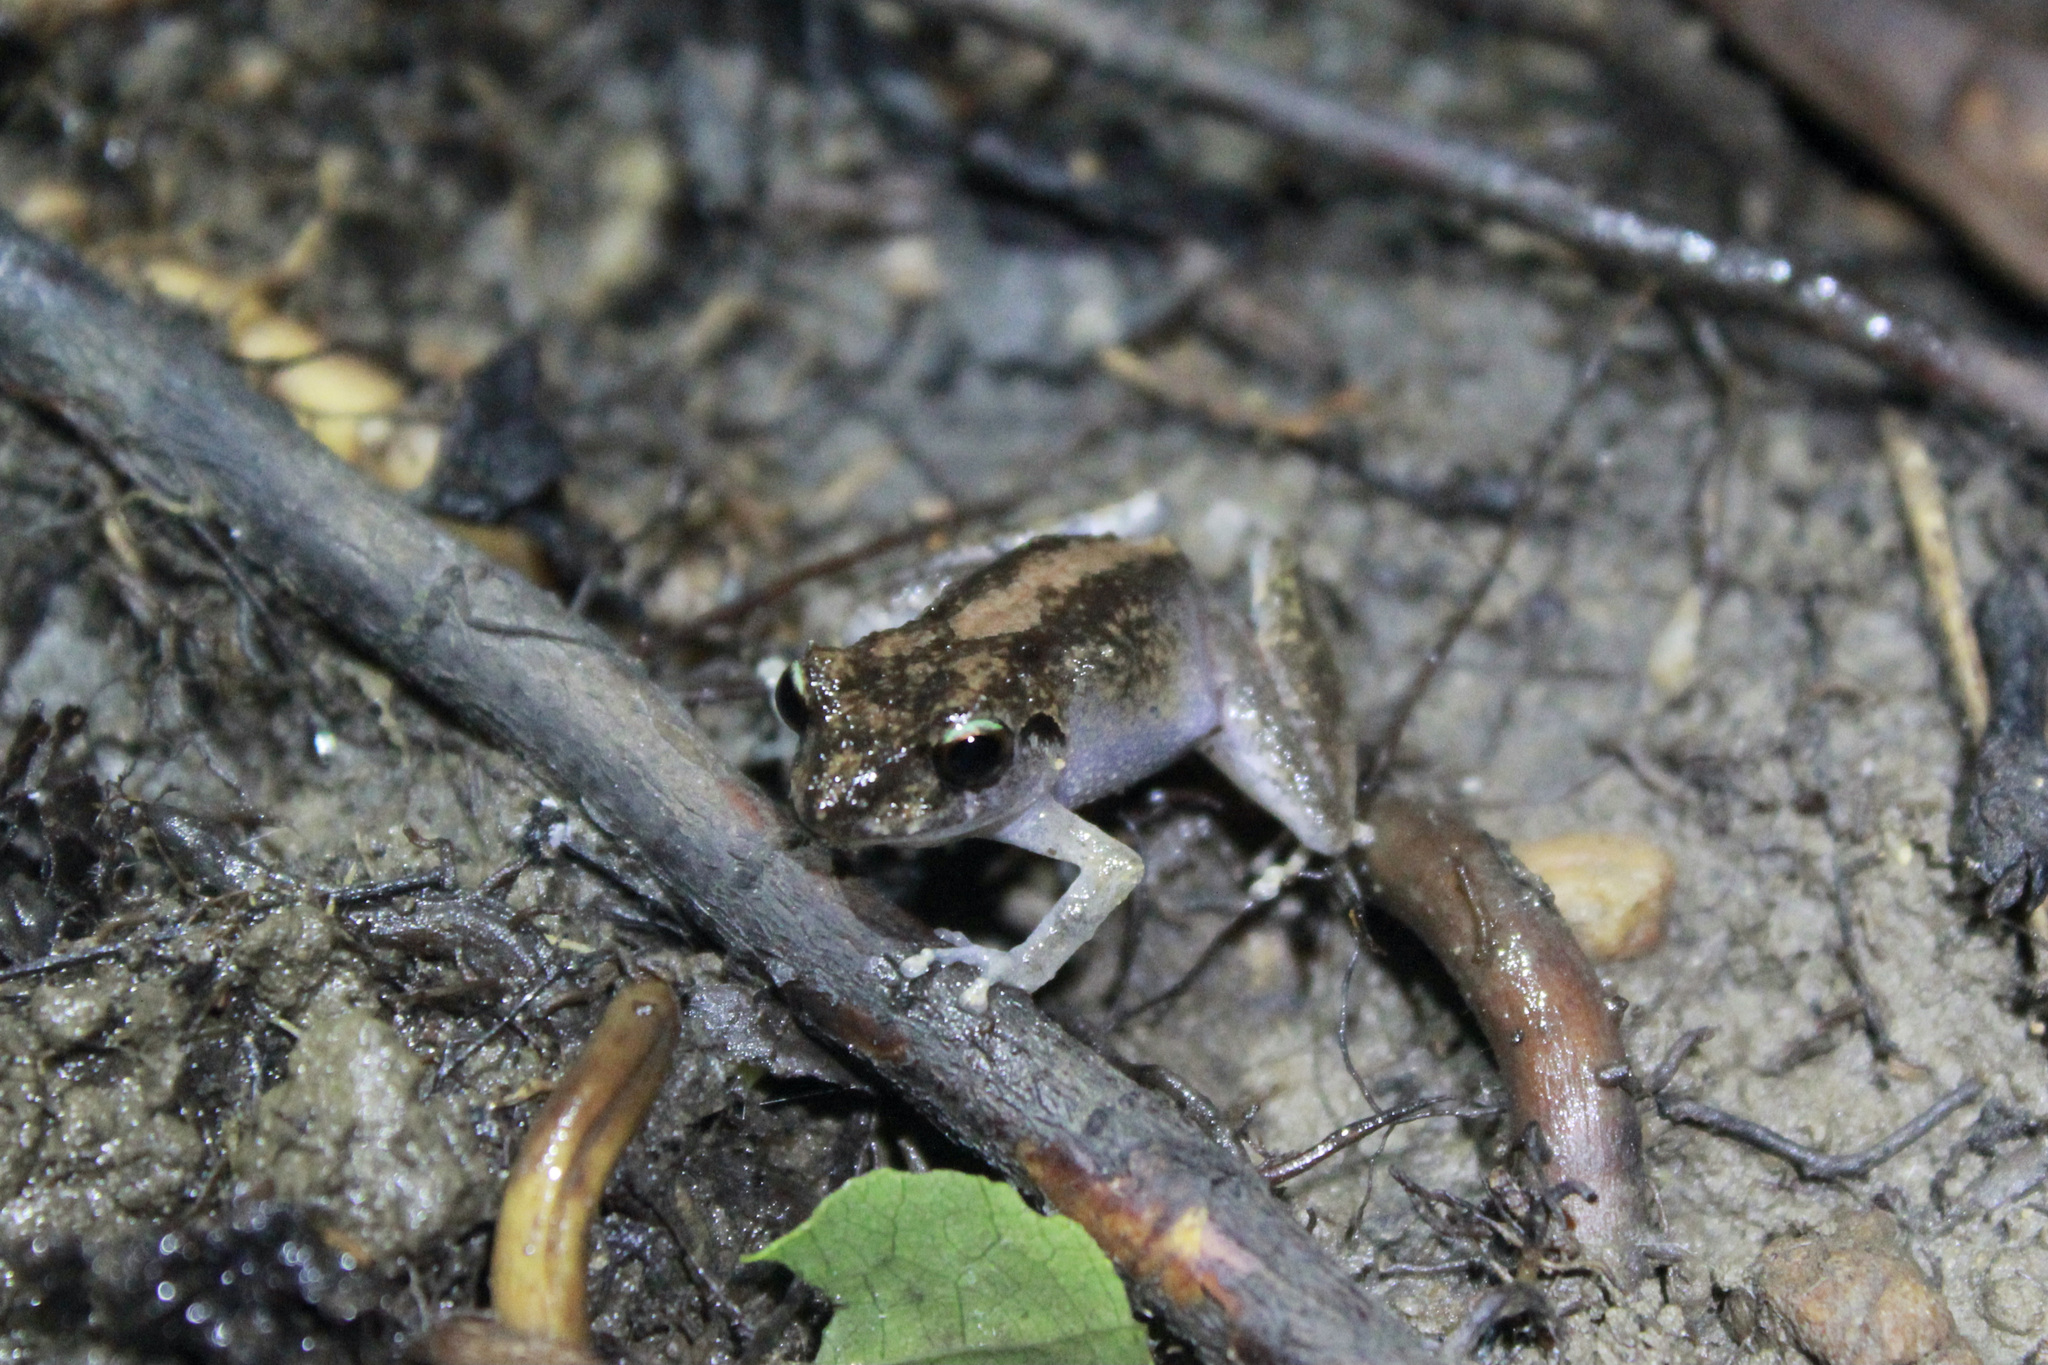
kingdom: Animalia
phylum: Chordata
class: Amphibia
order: Anura
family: Craugastoridae
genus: Pristimantis
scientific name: Pristimantis urichi
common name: Lesser antilles robber frog
